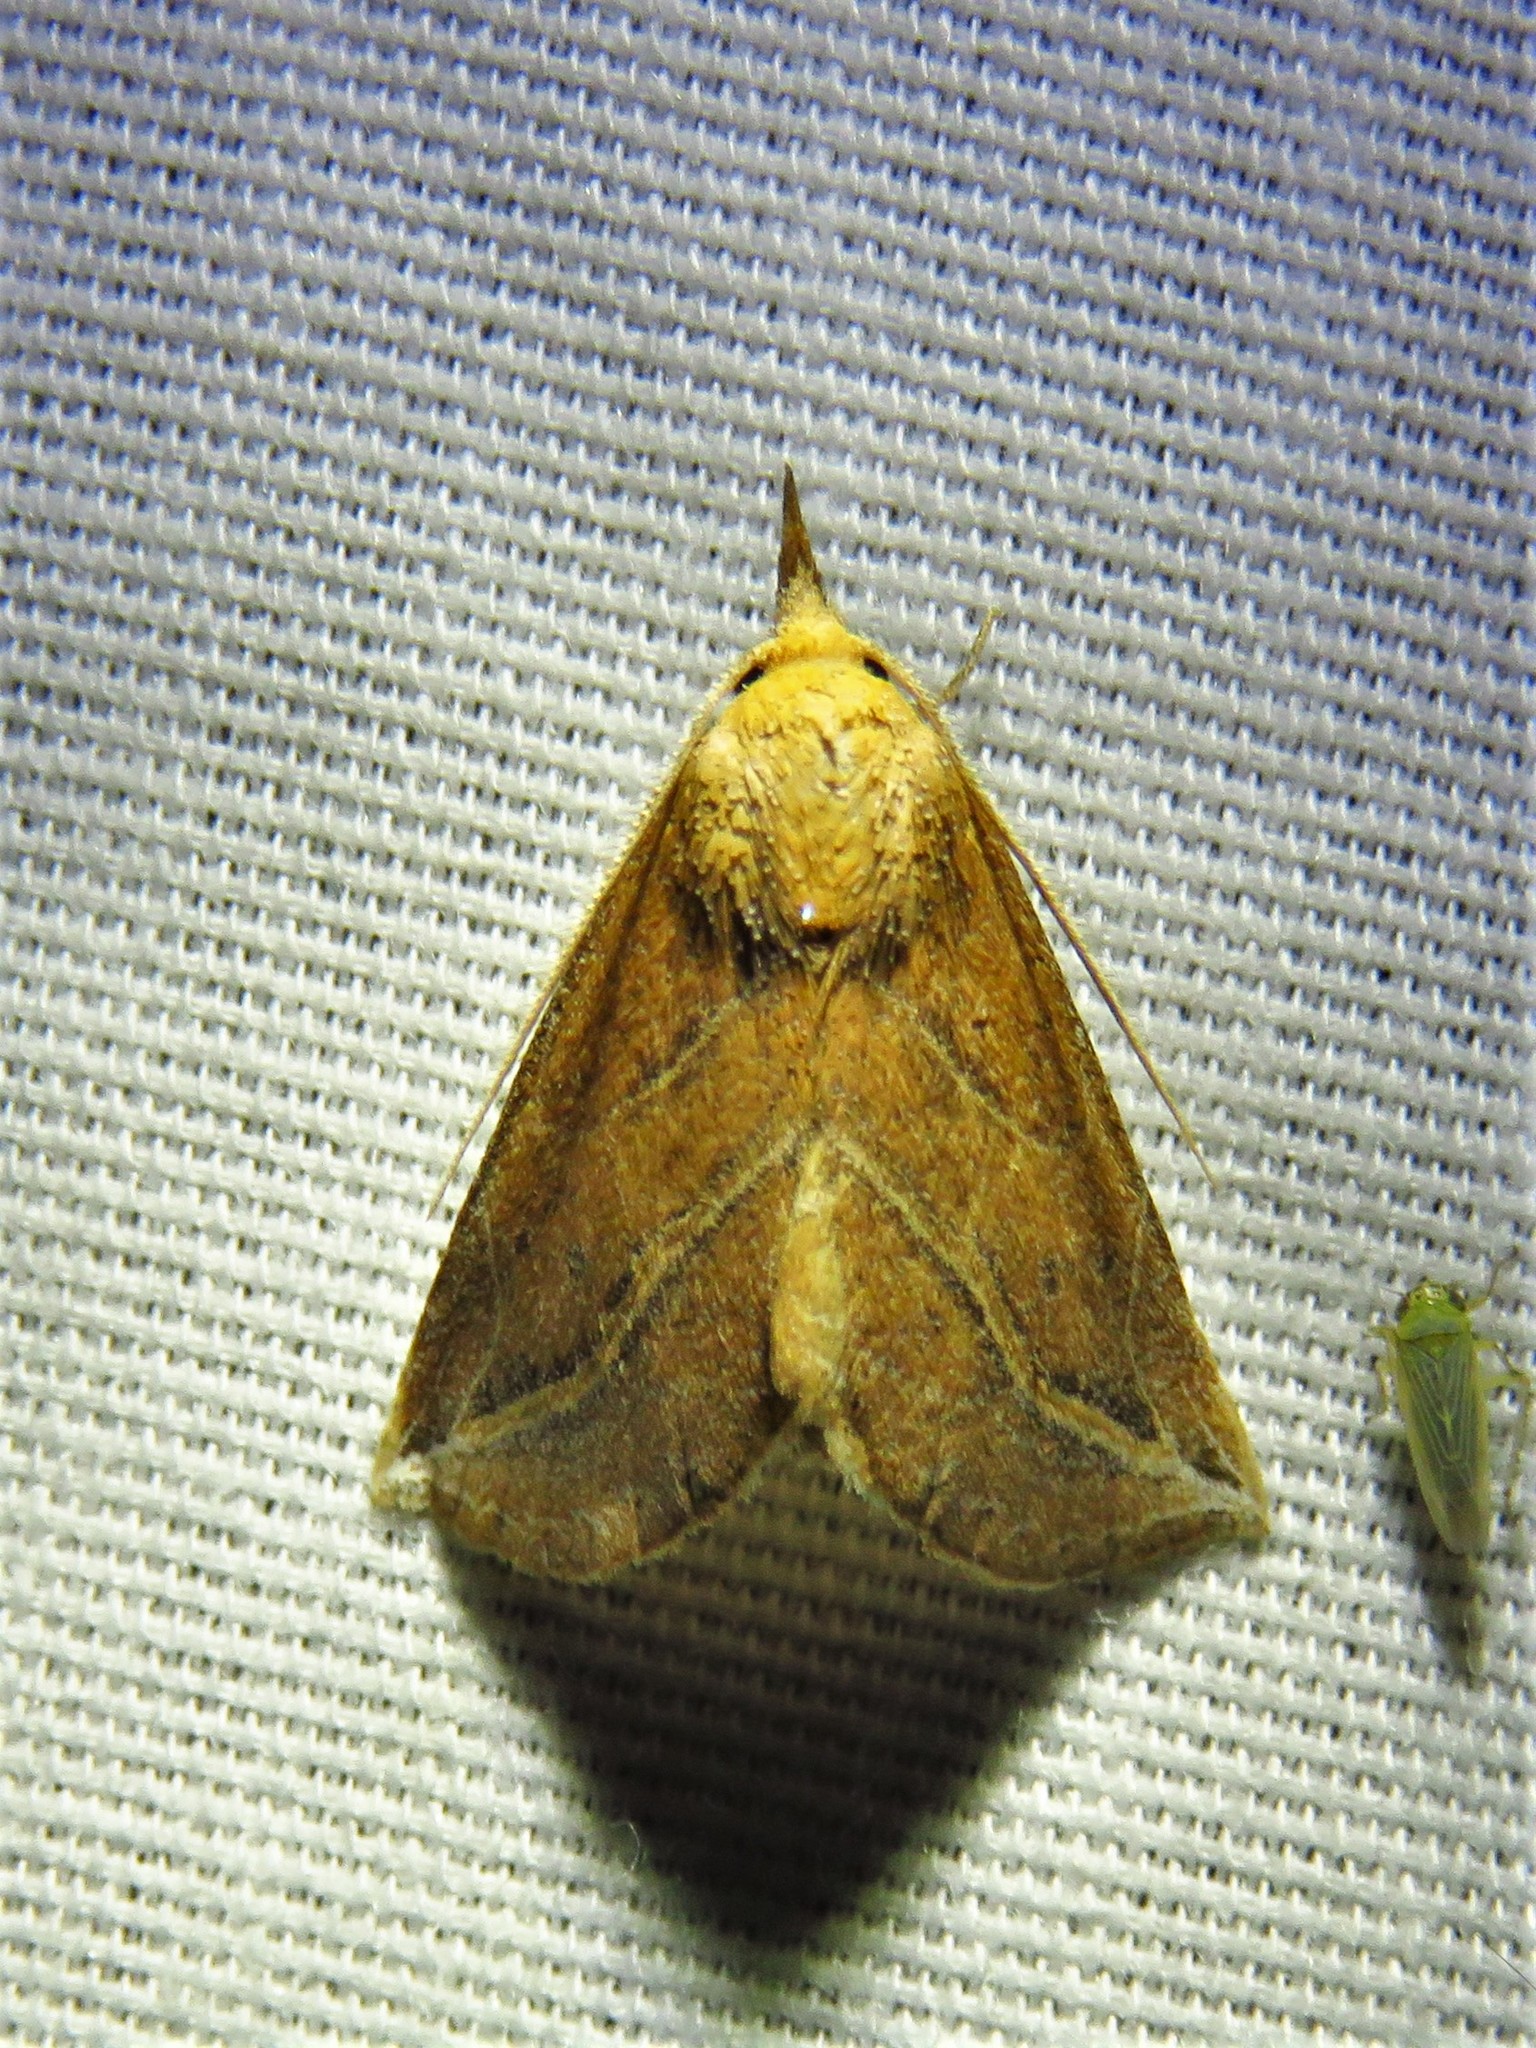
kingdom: Animalia
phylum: Arthropoda
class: Insecta
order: Lepidoptera
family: Erebidae
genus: Phyprosopus
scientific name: Phyprosopus callitrichoides
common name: Curved-lined owlet
